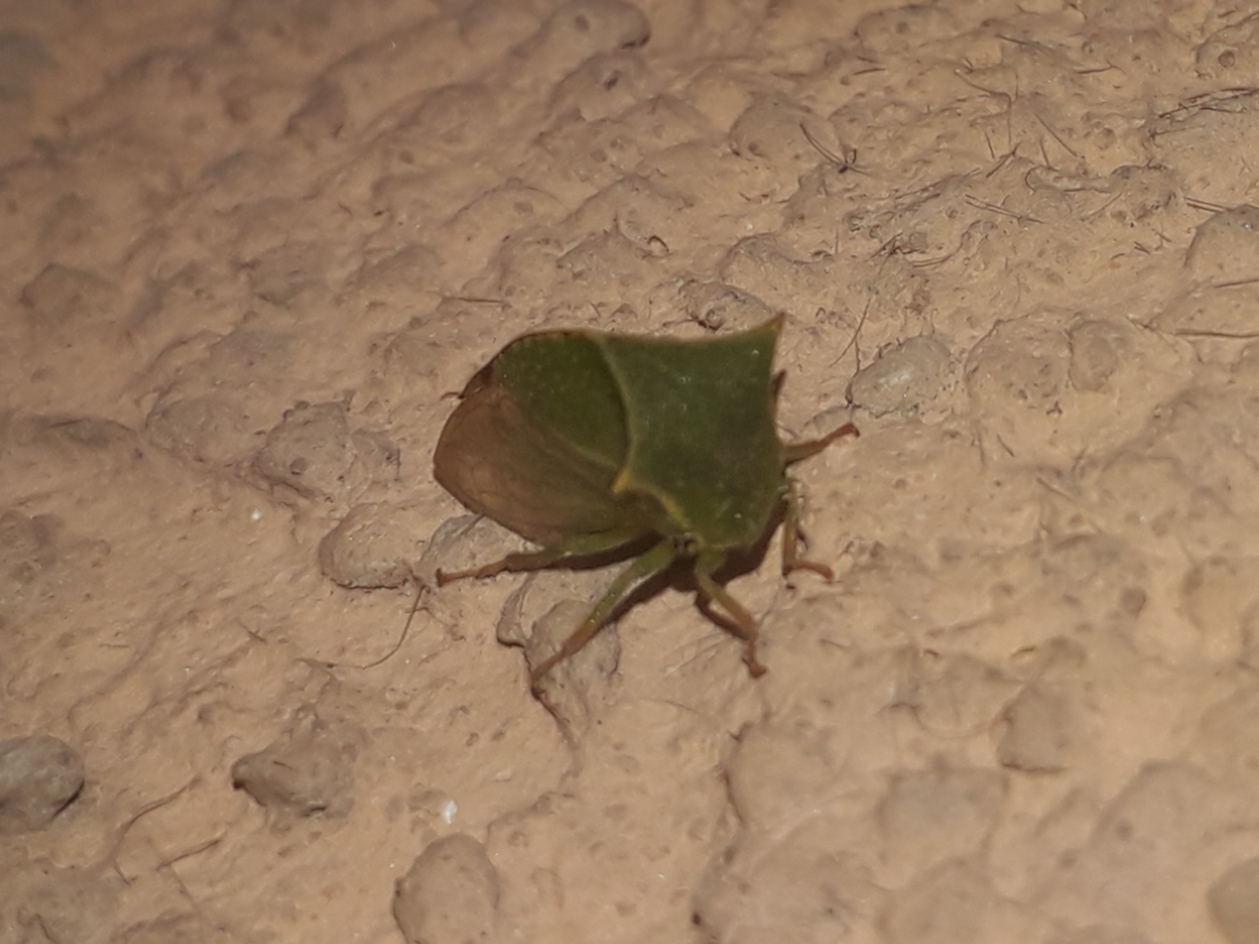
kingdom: Animalia
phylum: Arthropoda
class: Insecta
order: Hemiptera
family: Membracidae
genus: Stictocephala
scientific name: Stictocephala bisonia
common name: American buffalo treehopper
